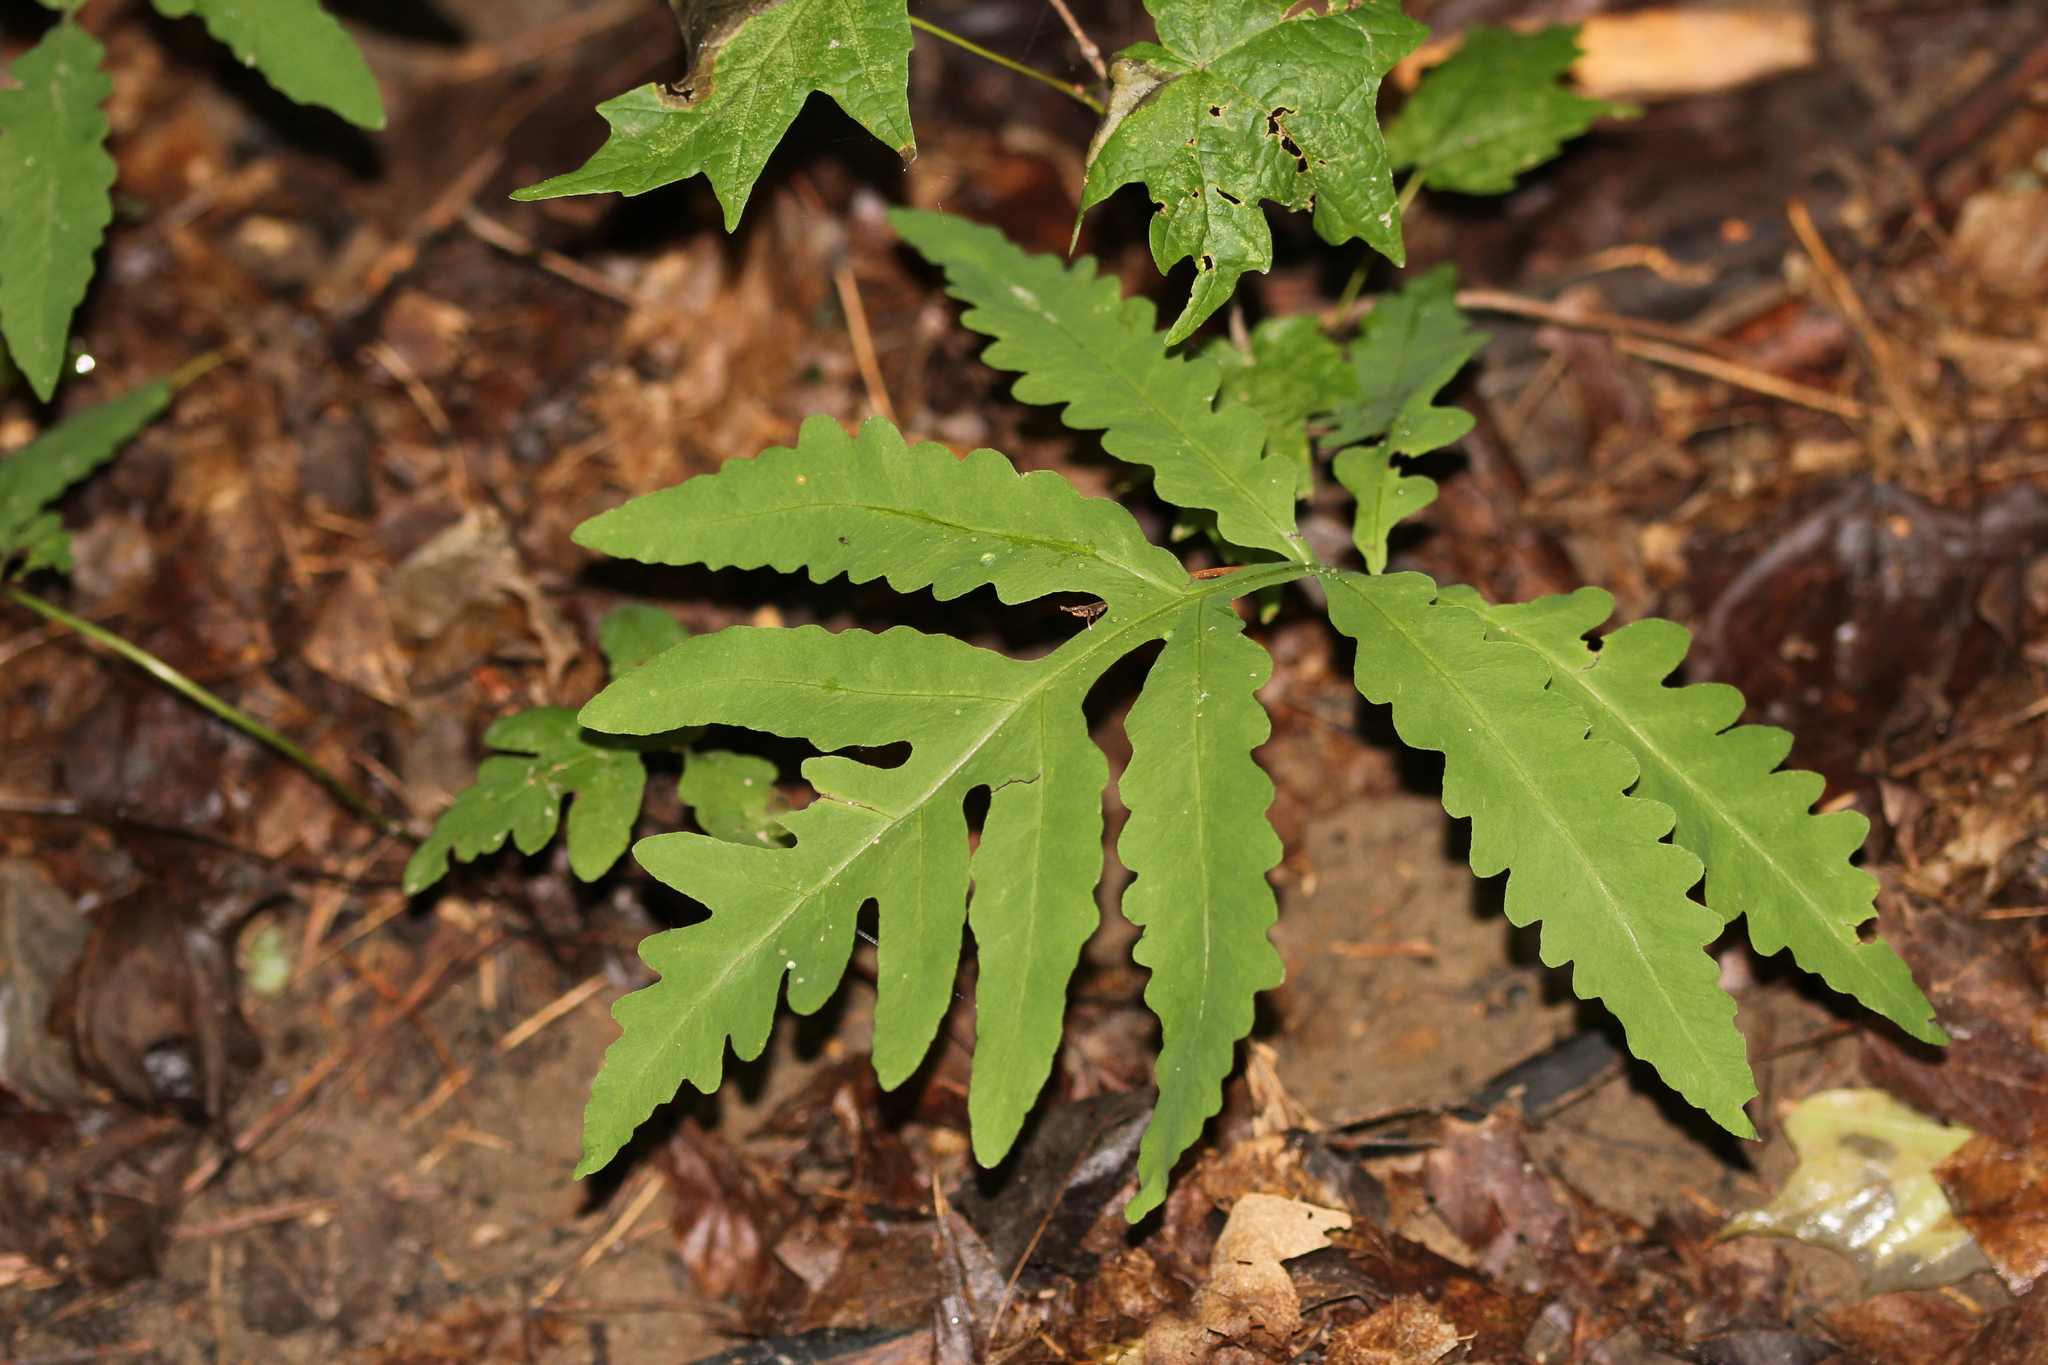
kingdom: Plantae
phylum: Tracheophyta
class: Polypodiopsida
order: Polypodiales
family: Onocleaceae
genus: Onoclea
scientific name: Onoclea sensibilis
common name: Sensitive fern
